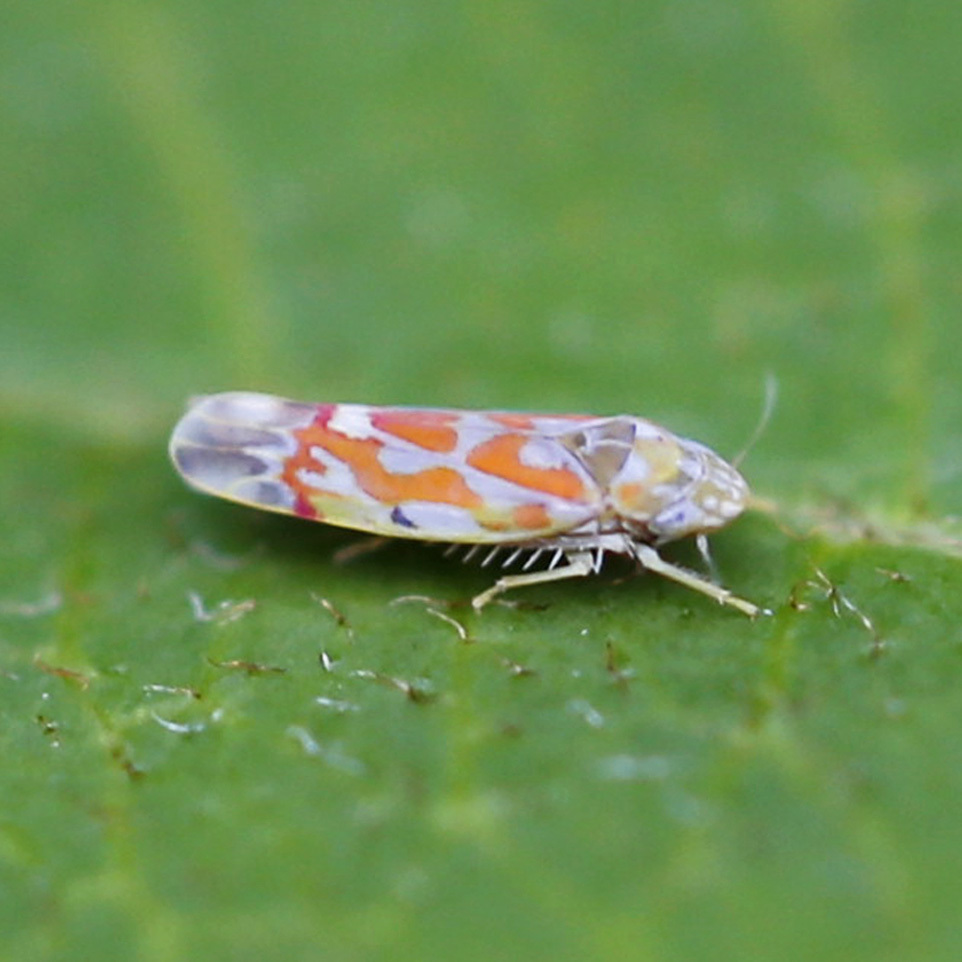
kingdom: Animalia
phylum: Arthropoda
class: Insecta
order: Hemiptera
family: Cicadellidae
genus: Erythroneura
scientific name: Erythroneura rubrella
